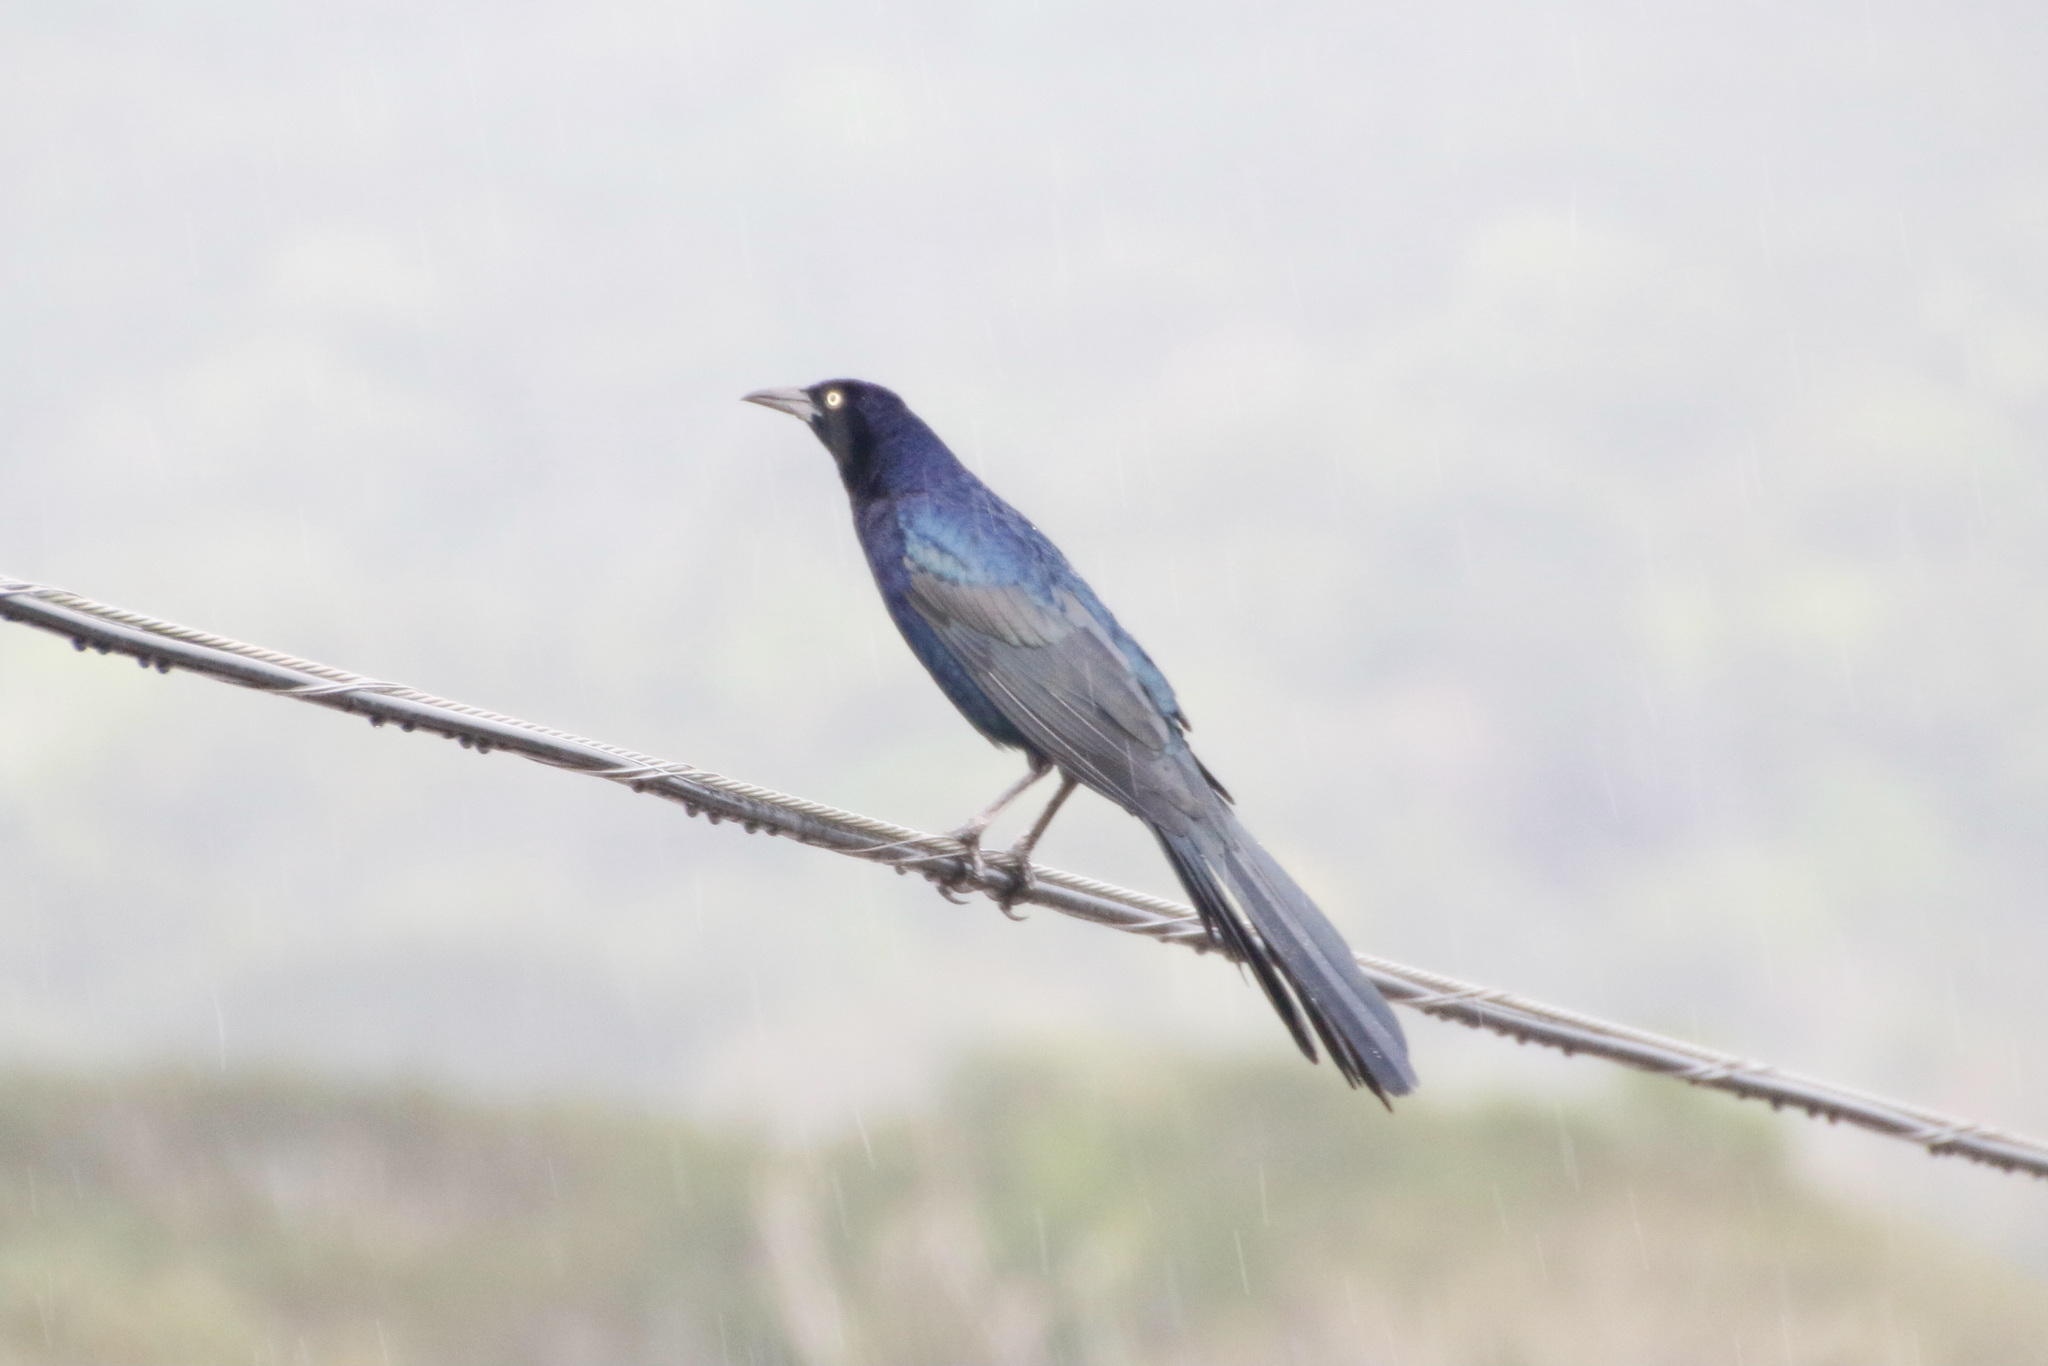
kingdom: Animalia
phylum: Chordata
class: Aves
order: Passeriformes
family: Icteridae
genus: Quiscalus
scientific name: Quiscalus mexicanus
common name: Great-tailed grackle
